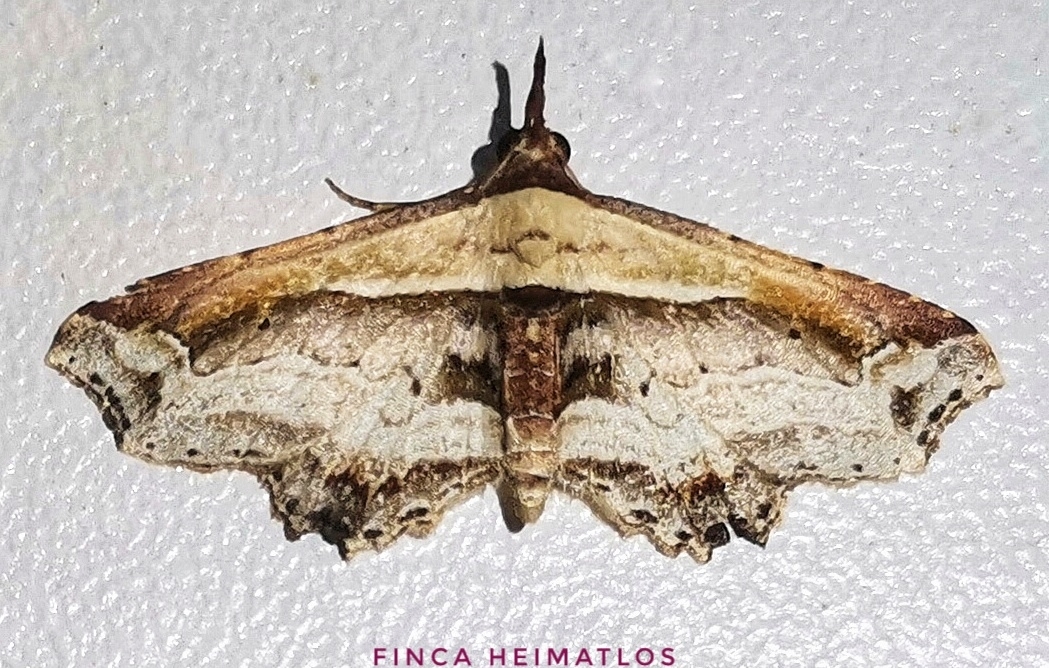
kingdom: Animalia
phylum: Arthropoda
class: Insecta
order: Lepidoptera
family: Erebidae
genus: Eugoniella
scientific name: Eugoniella sapota
